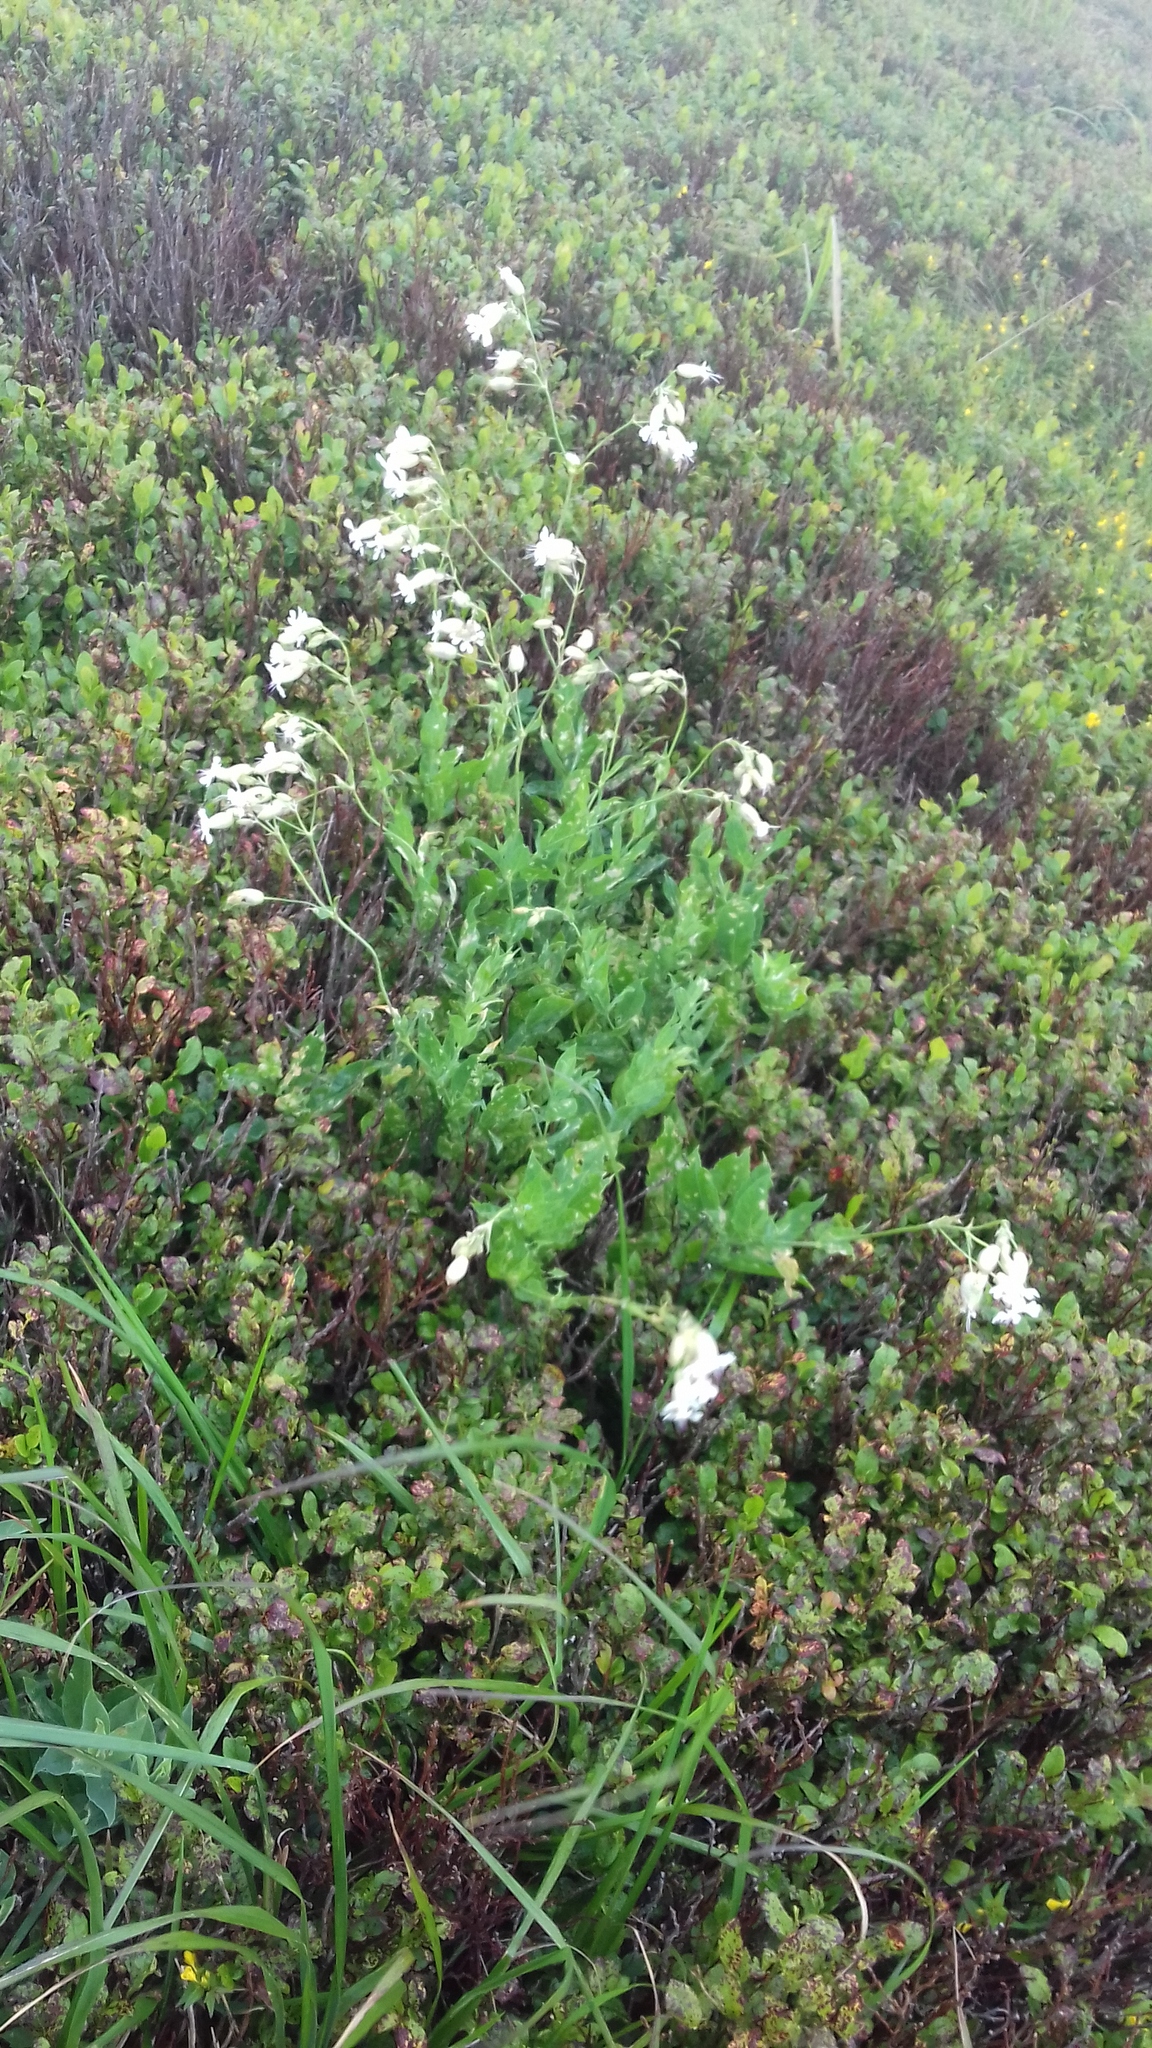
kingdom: Plantae
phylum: Tracheophyta
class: Magnoliopsida
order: Caryophyllales
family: Caryophyllaceae
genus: Silene
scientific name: Silene latifolia
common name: White campion
